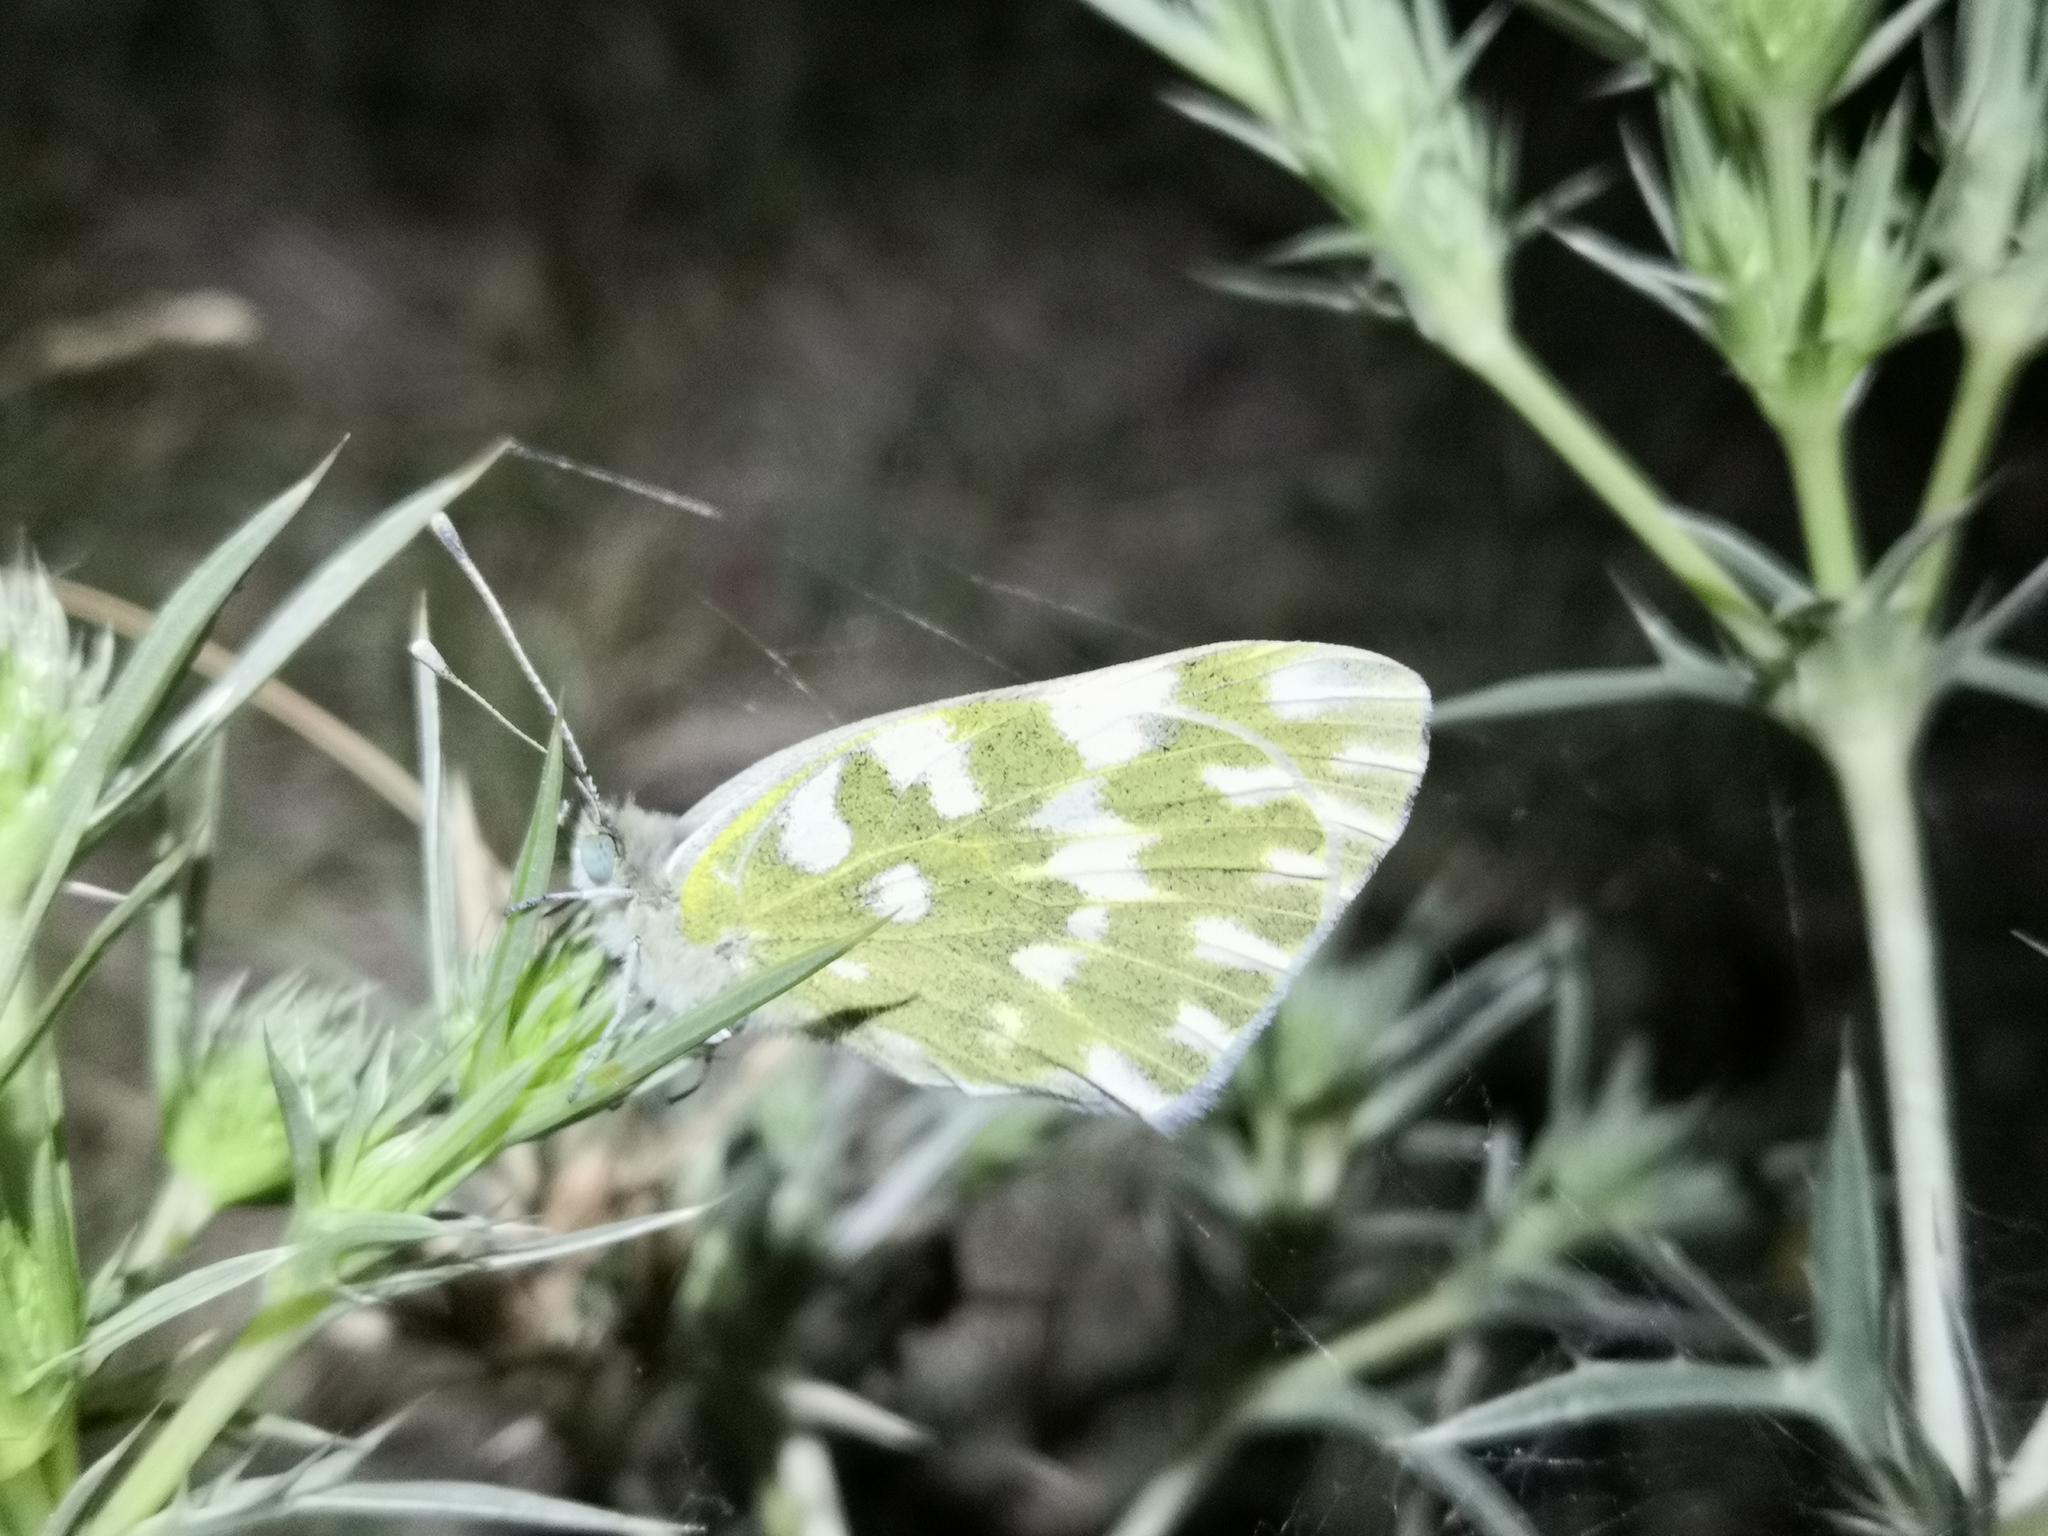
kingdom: Animalia
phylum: Arthropoda
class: Insecta
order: Lepidoptera
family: Pieridae
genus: Pontia
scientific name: Pontia edusa
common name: Eastern bath white
